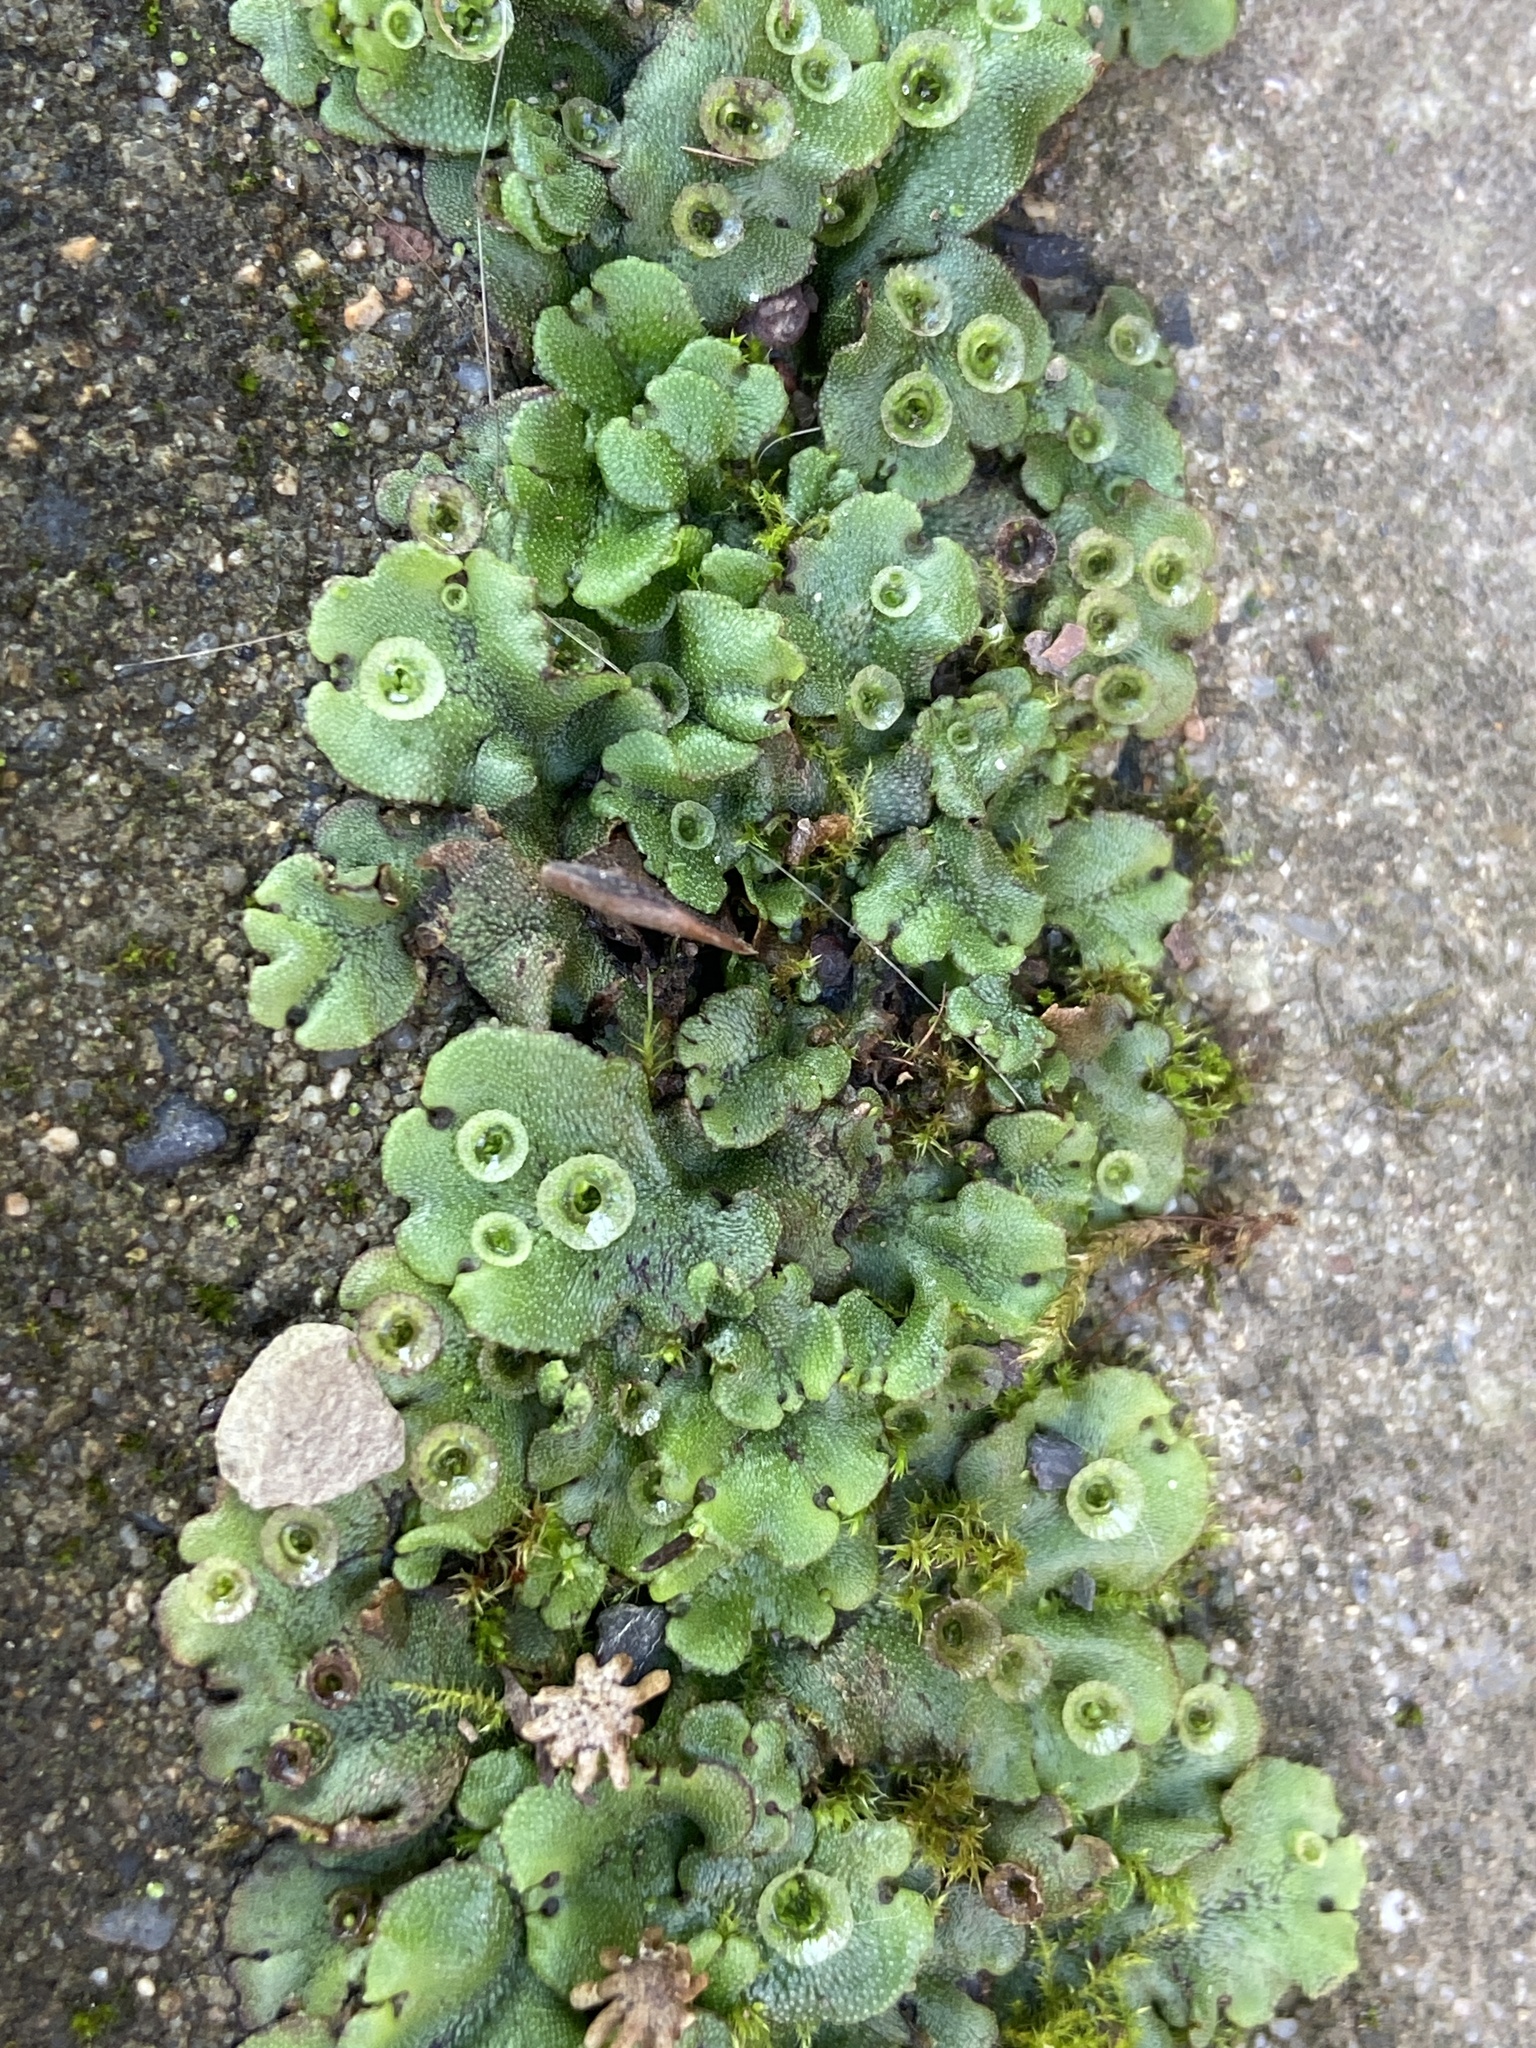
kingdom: Plantae
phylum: Marchantiophyta
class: Marchantiopsida
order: Marchantiales
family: Marchantiaceae
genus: Marchantia
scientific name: Marchantia polymorpha
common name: Common liverwort
